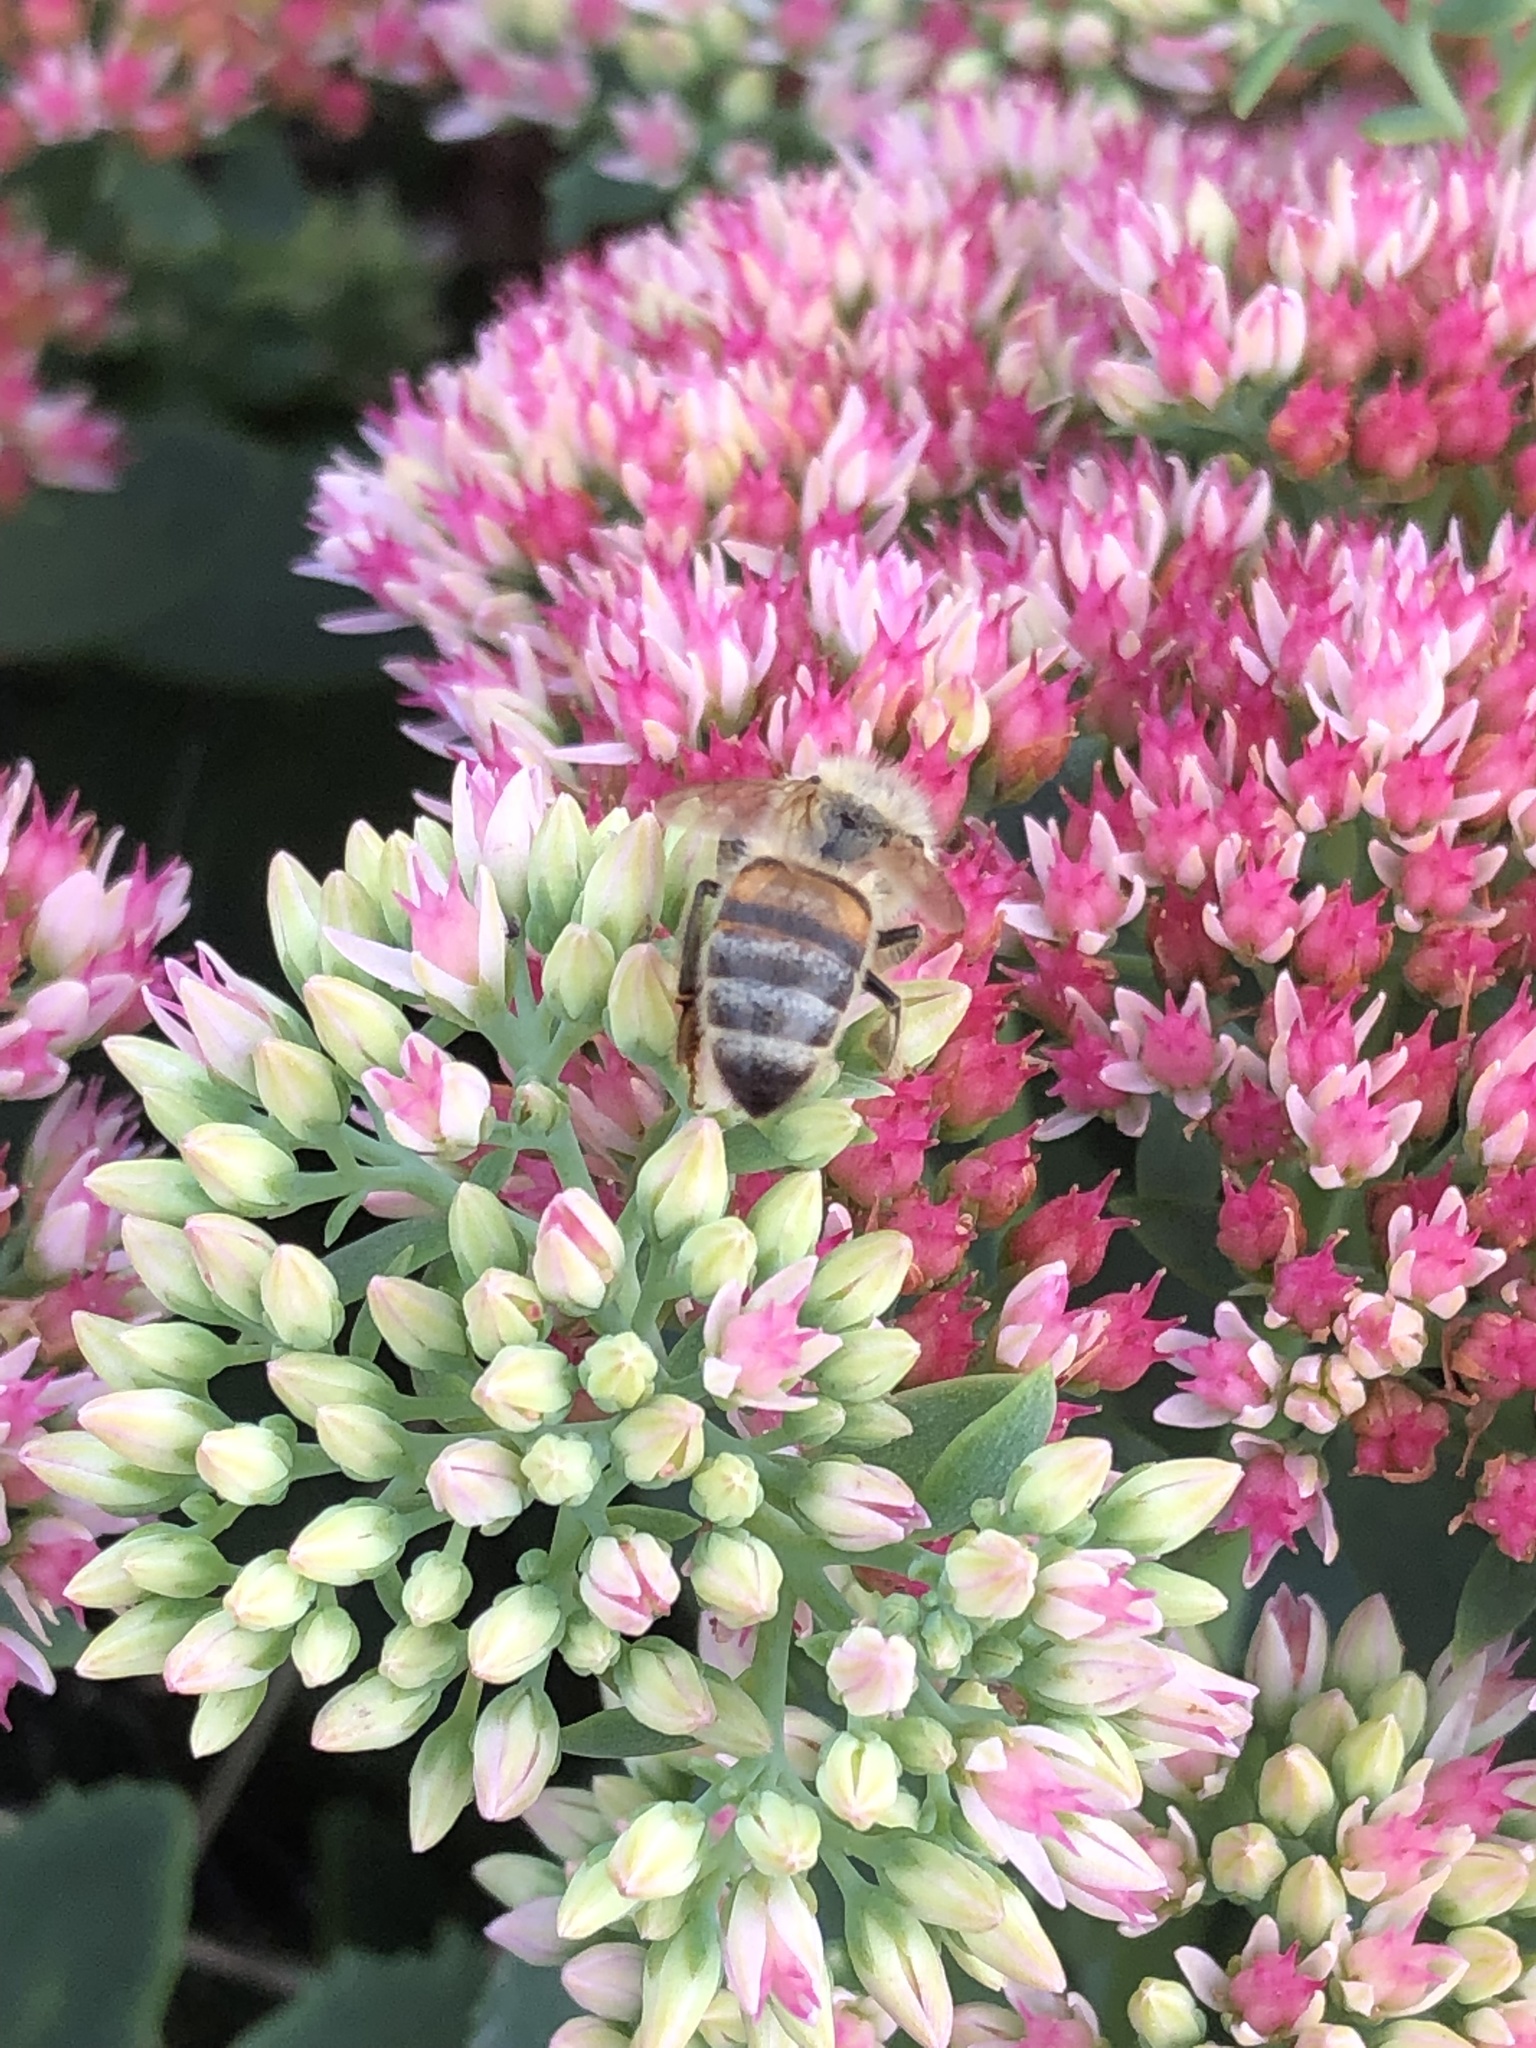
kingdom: Animalia
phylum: Arthropoda
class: Insecta
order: Hymenoptera
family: Apidae
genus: Apis
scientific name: Apis mellifera
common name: Honey bee
